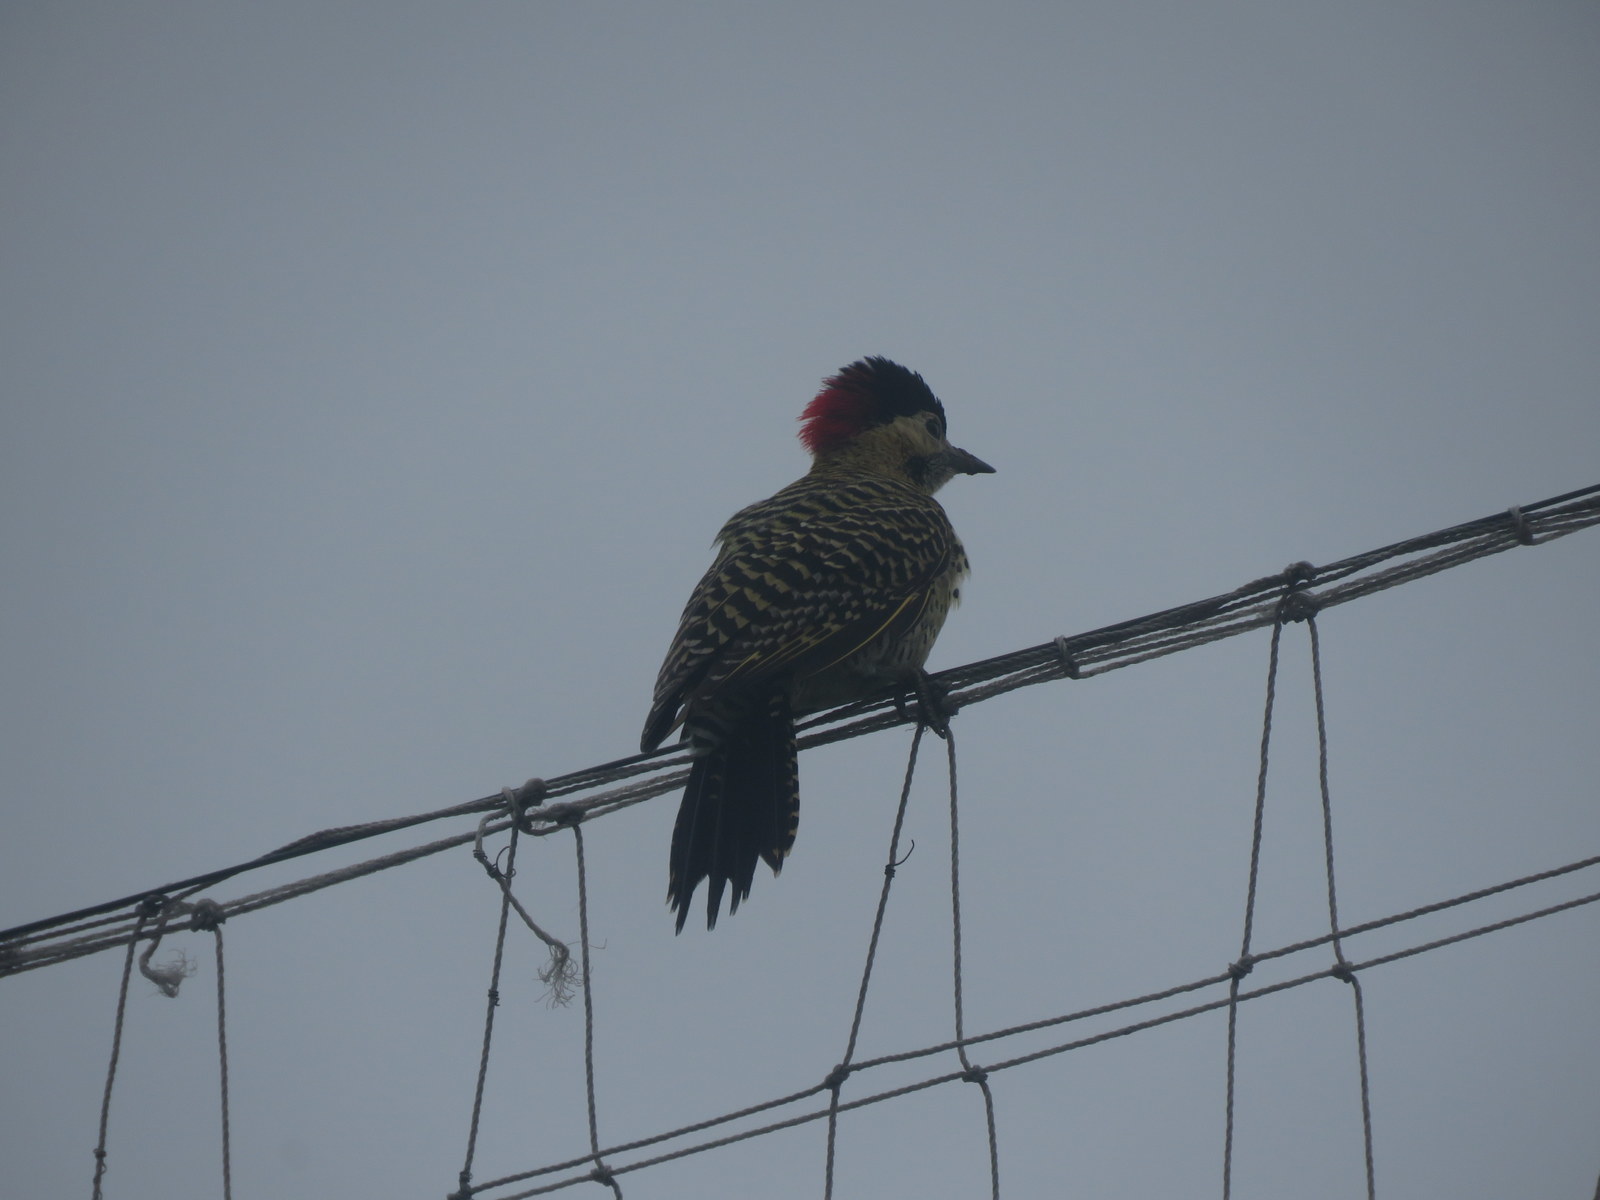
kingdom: Animalia
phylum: Chordata
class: Aves
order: Piciformes
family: Picidae
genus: Colaptes
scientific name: Colaptes melanochloros
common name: Green-barred woodpecker
